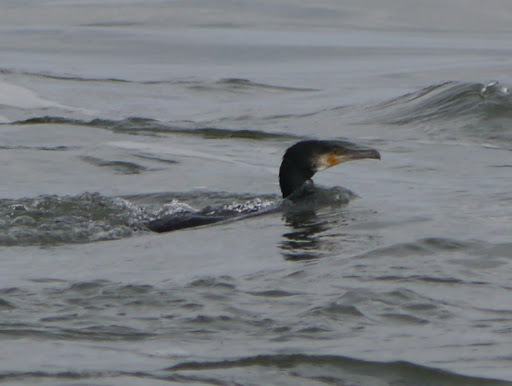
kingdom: Animalia
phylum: Chordata
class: Aves
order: Suliformes
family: Phalacrocoracidae
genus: Phalacrocorax
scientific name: Phalacrocorax carbo
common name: Great cormorant
